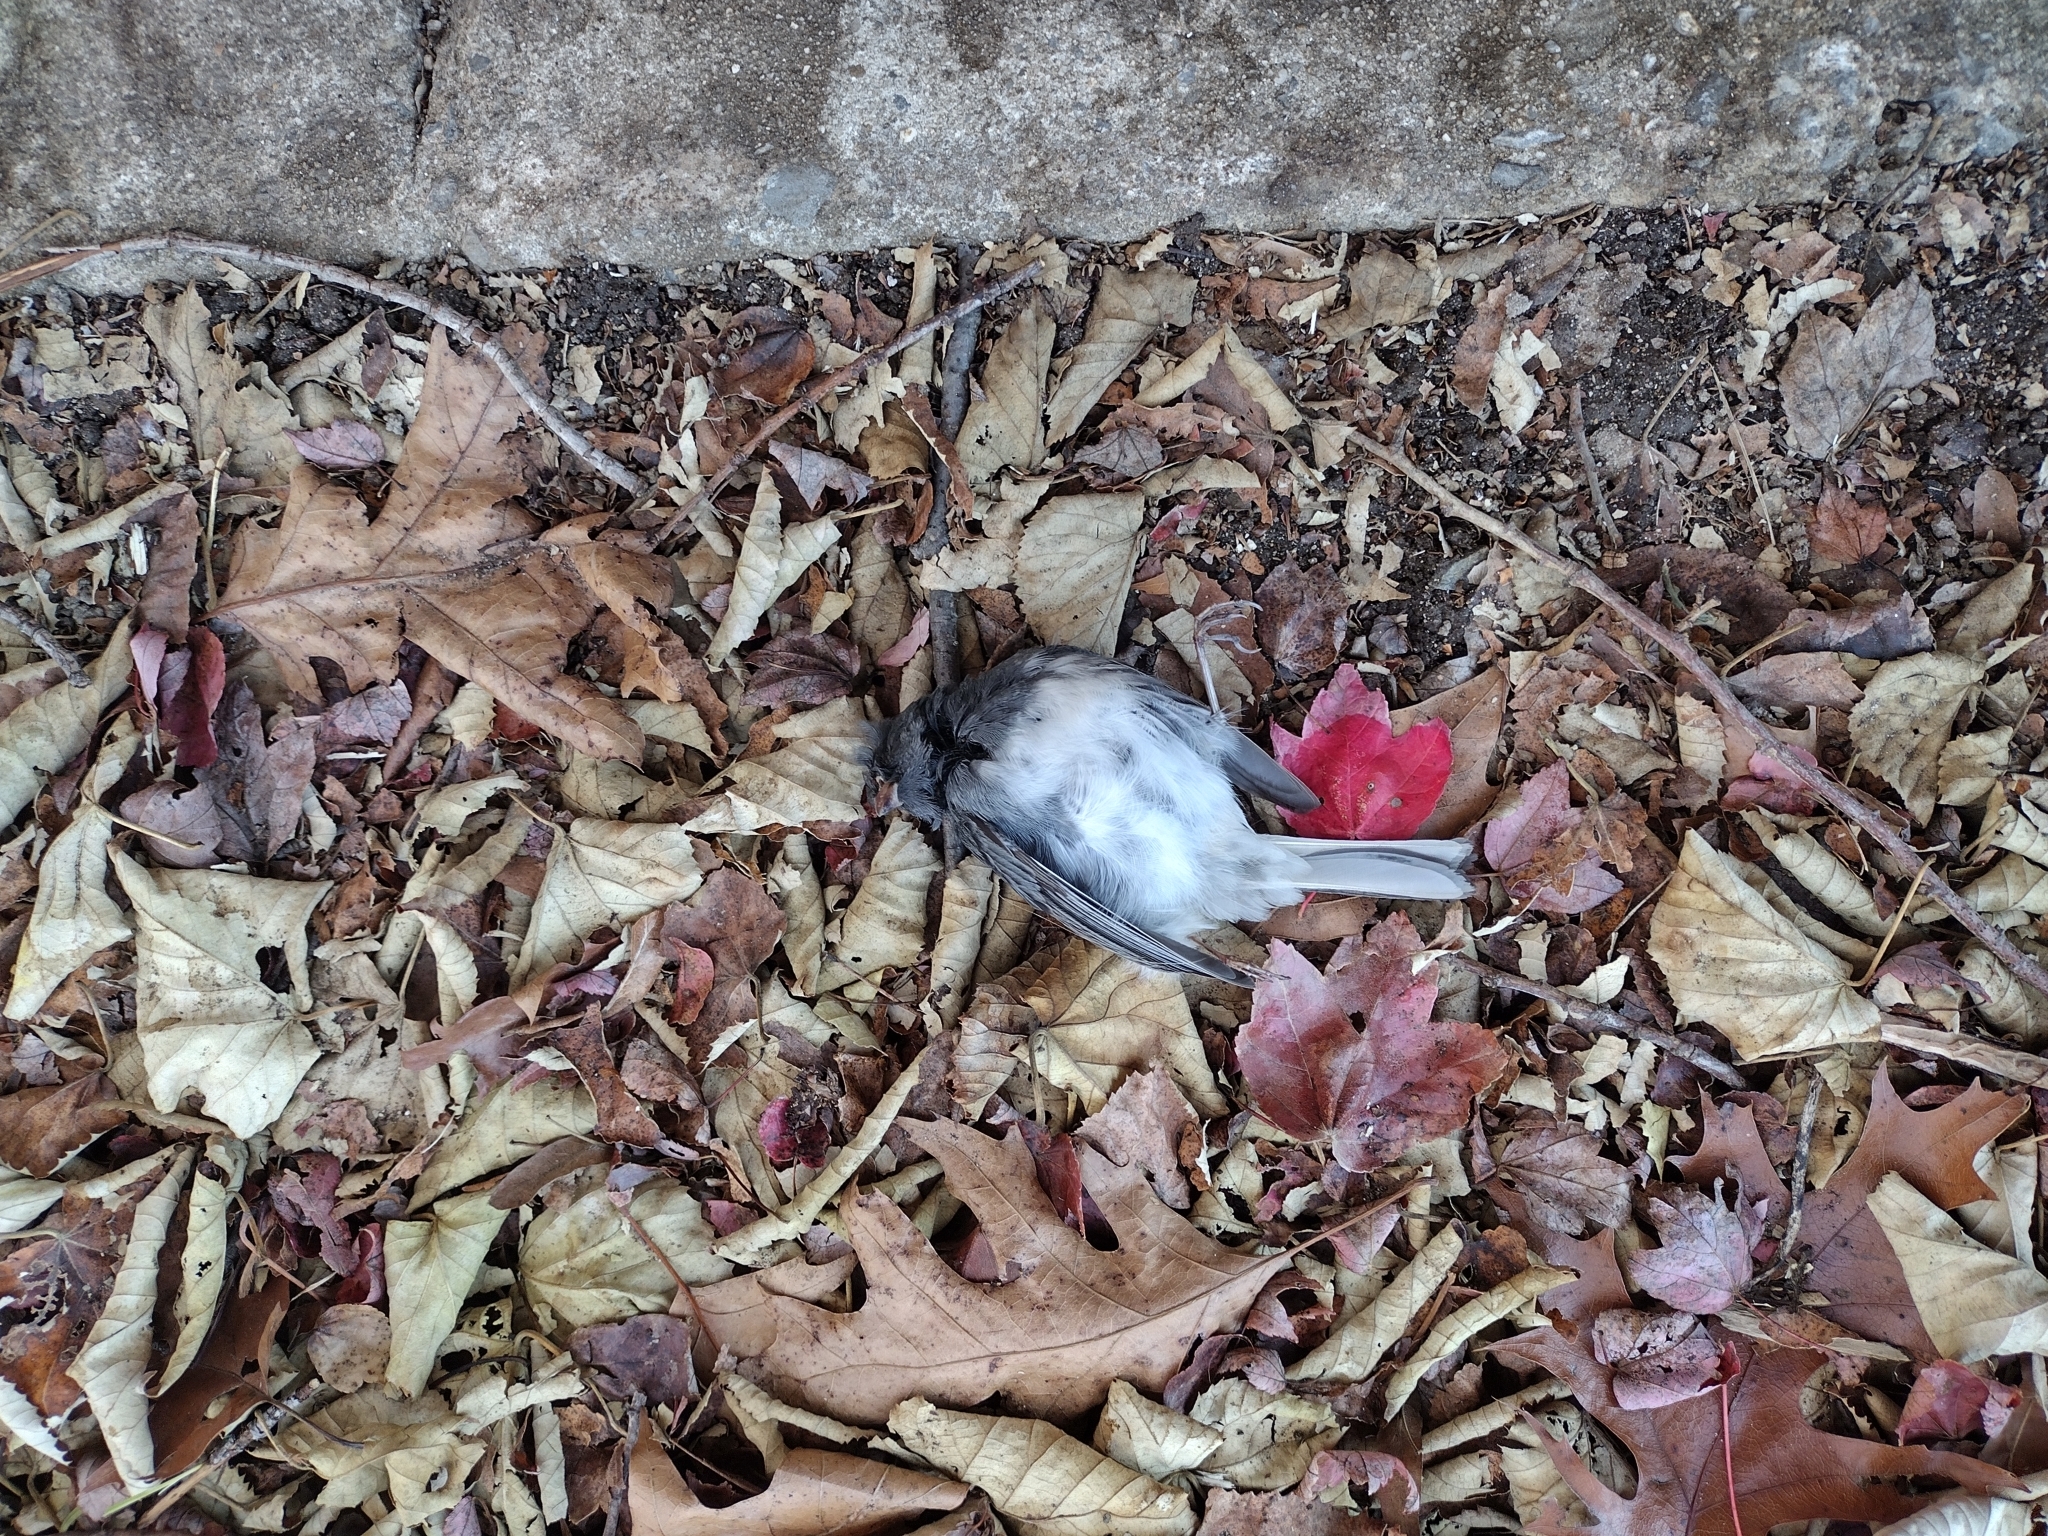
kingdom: Animalia
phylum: Chordata
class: Aves
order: Passeriformes
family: Passerellidae
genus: Junco
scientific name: Junco hyemalis
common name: Dark-eyed junco
